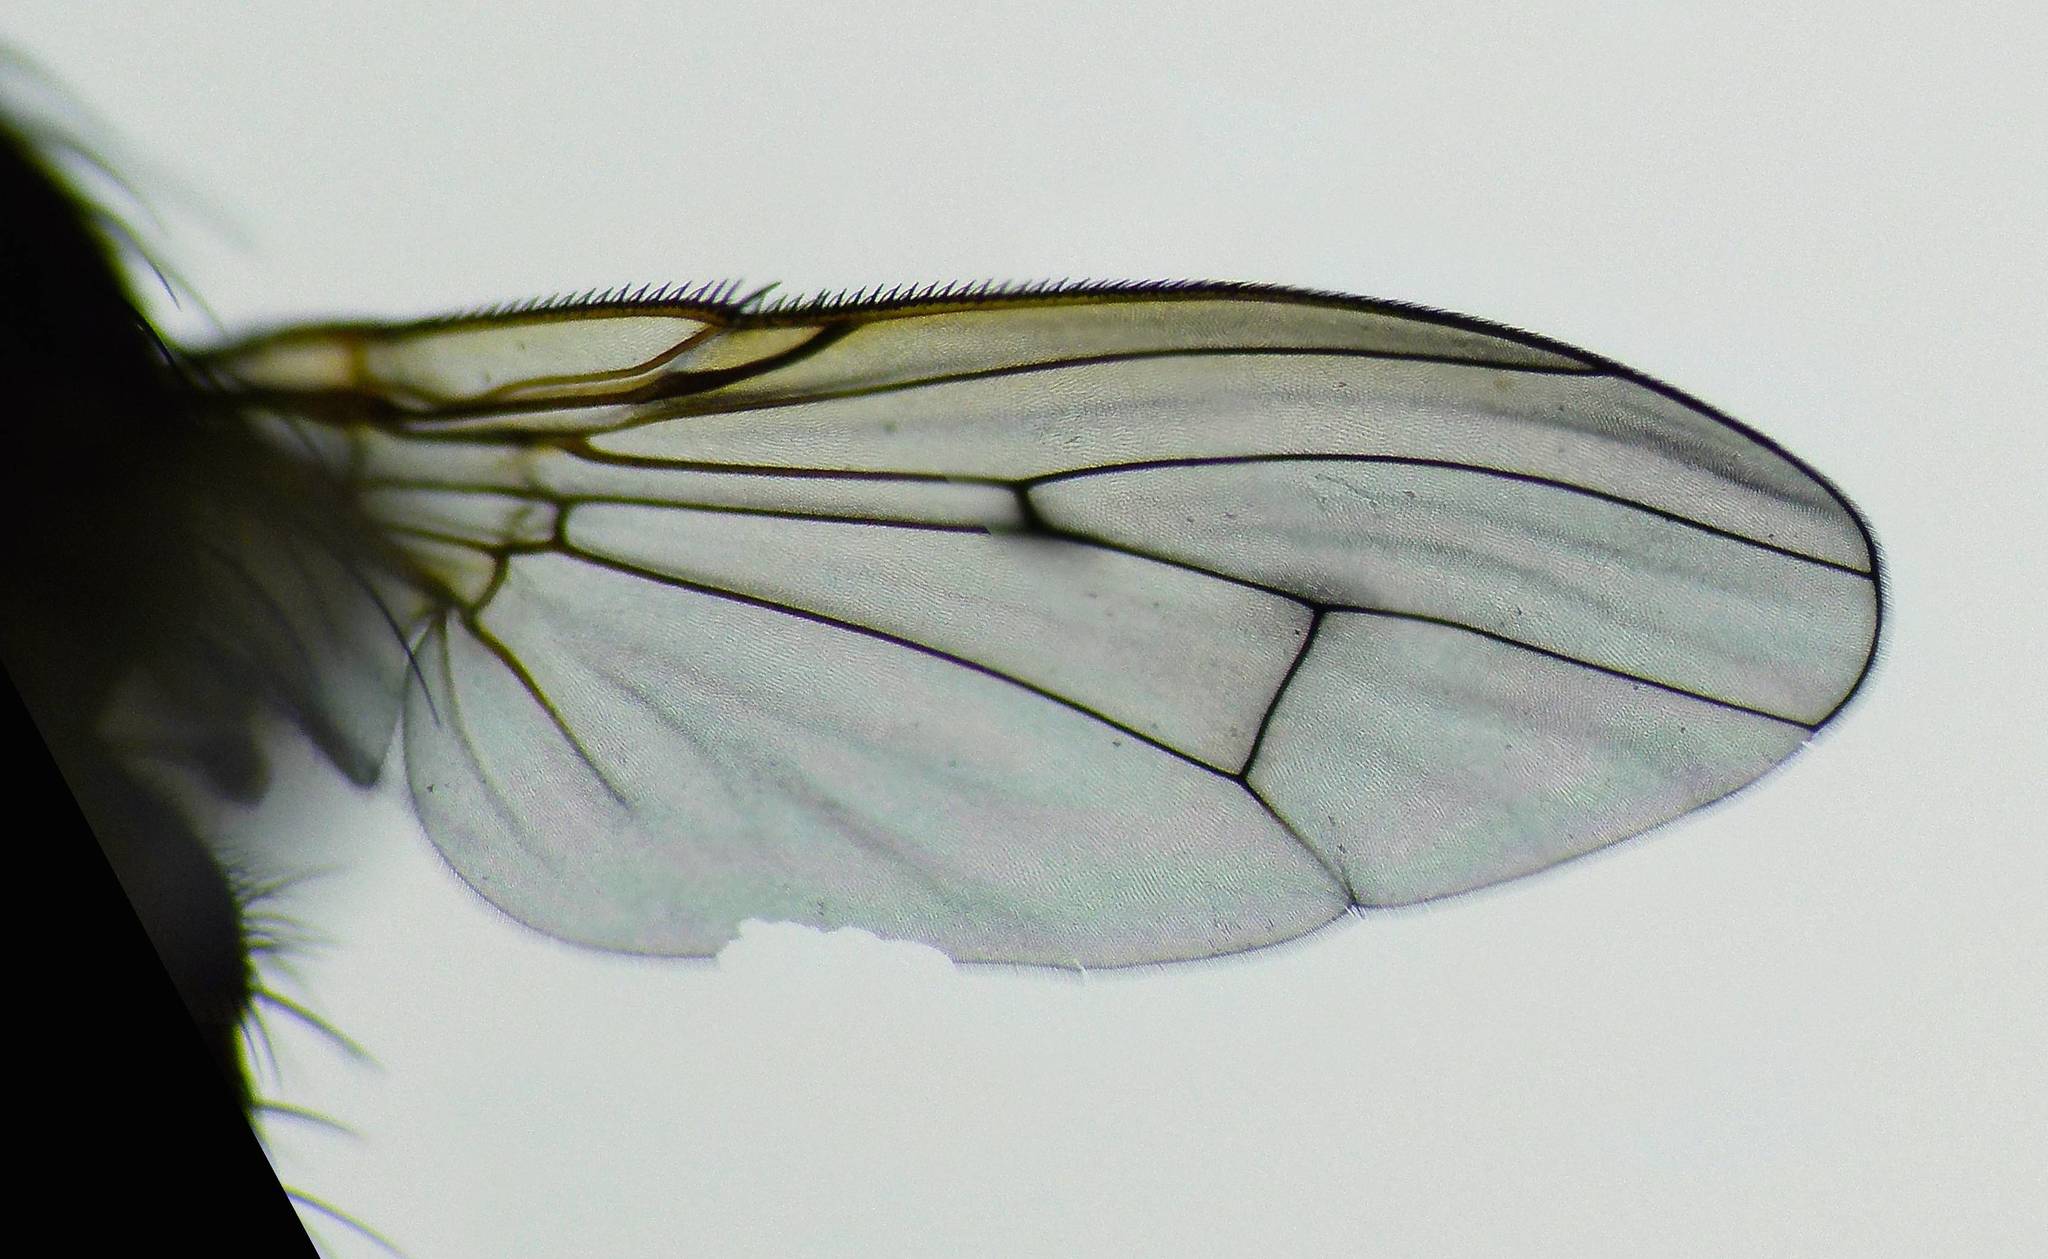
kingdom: Animalia
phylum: Arthropoda
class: Insecta
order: Diptera
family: Muscidae
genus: Limnohelina
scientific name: Limnohelina uniformis
